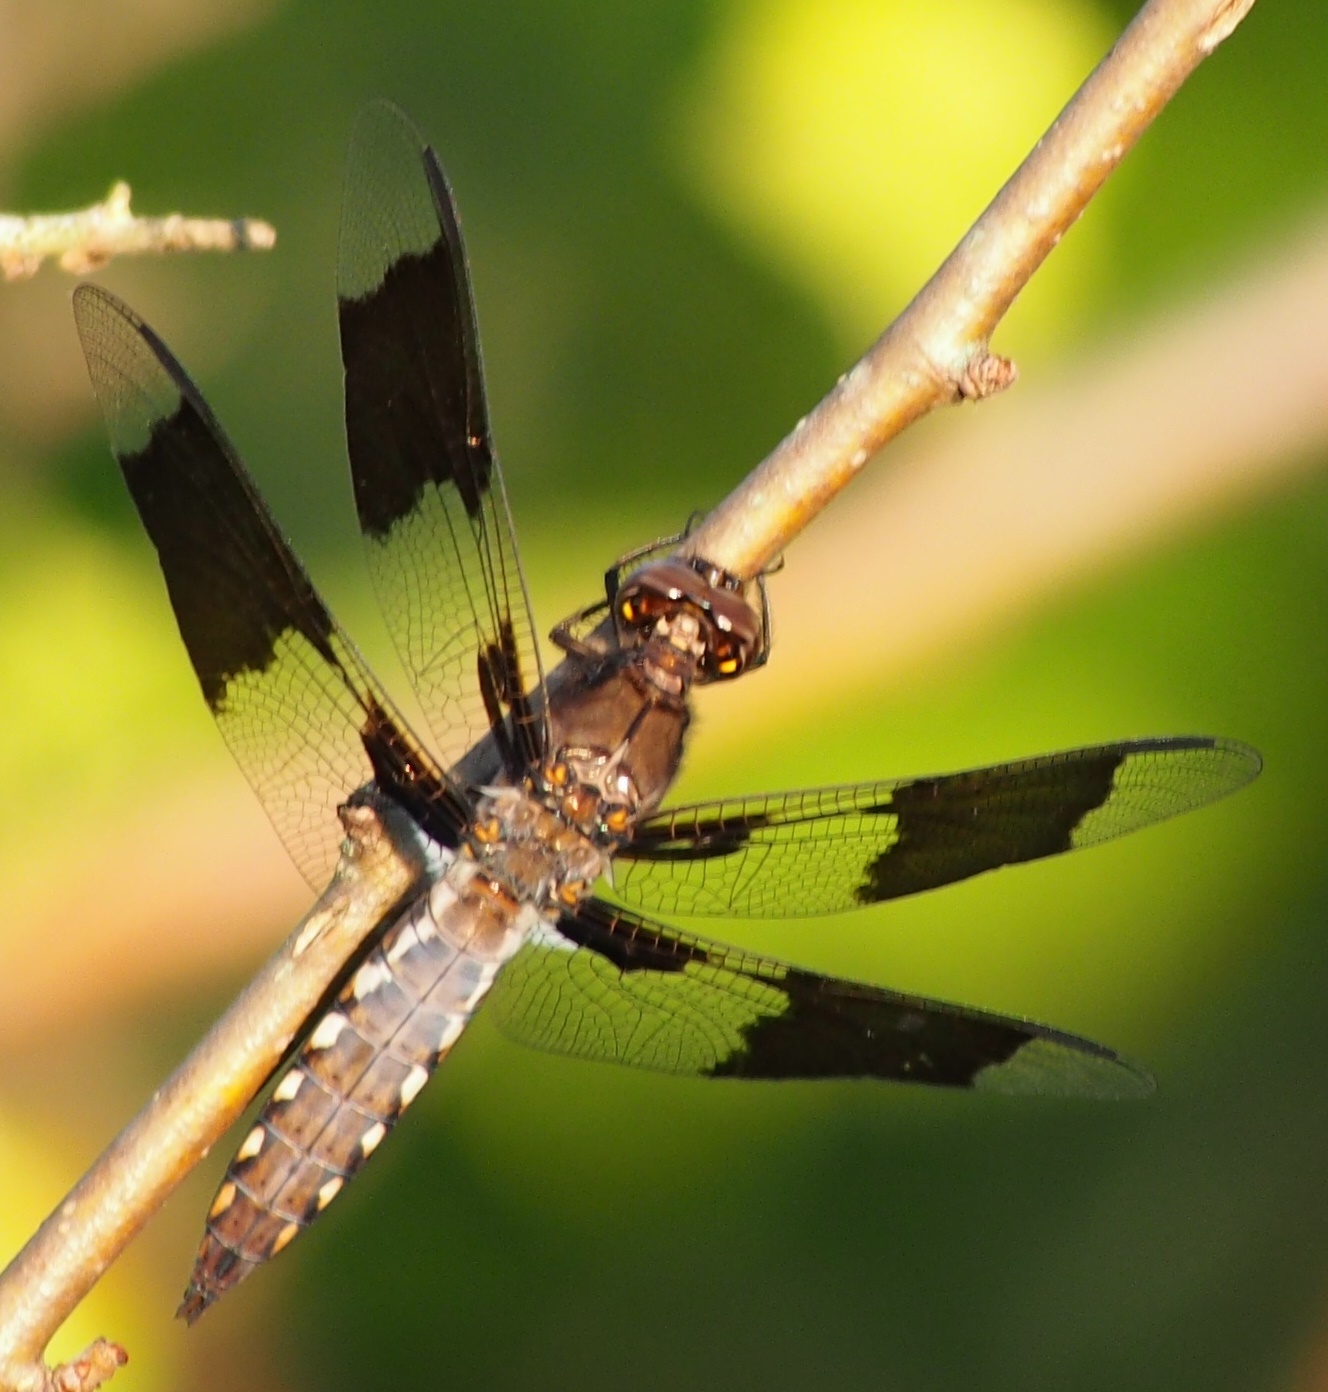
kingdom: Animalia
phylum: Arthropoda
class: Insecta
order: Odonata
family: Libellulidae
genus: Plathemis
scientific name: Plathemis lydia
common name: Common whitetail
